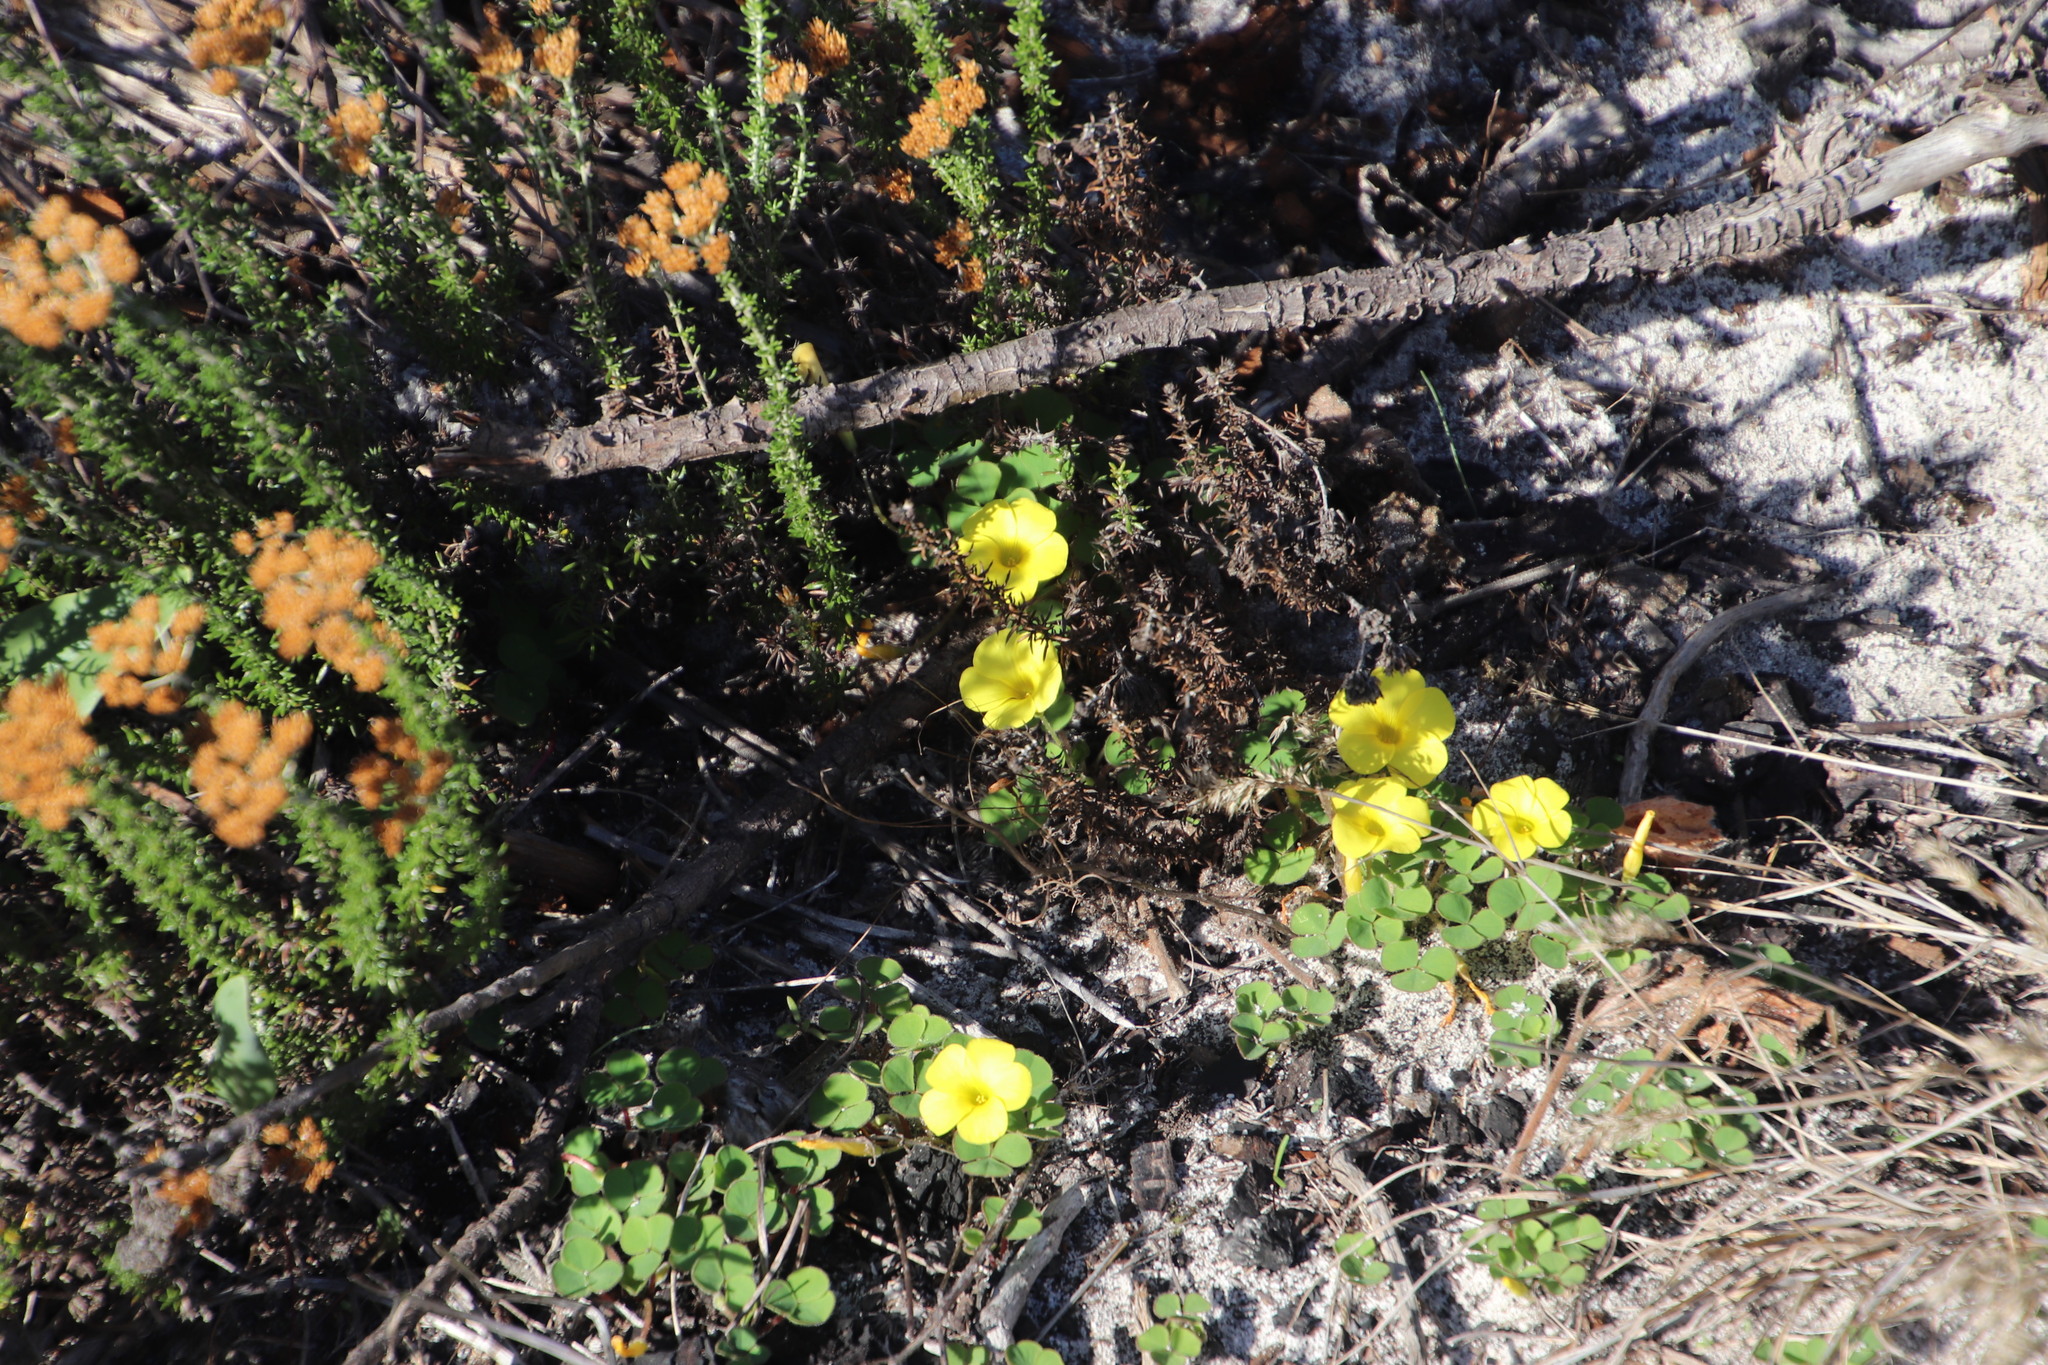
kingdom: Plantae
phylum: Tracheophyta
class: Magnoliopsida
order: Oxalidales
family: Oxalidaceae
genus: Oxalis
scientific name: Oxalis luteola
